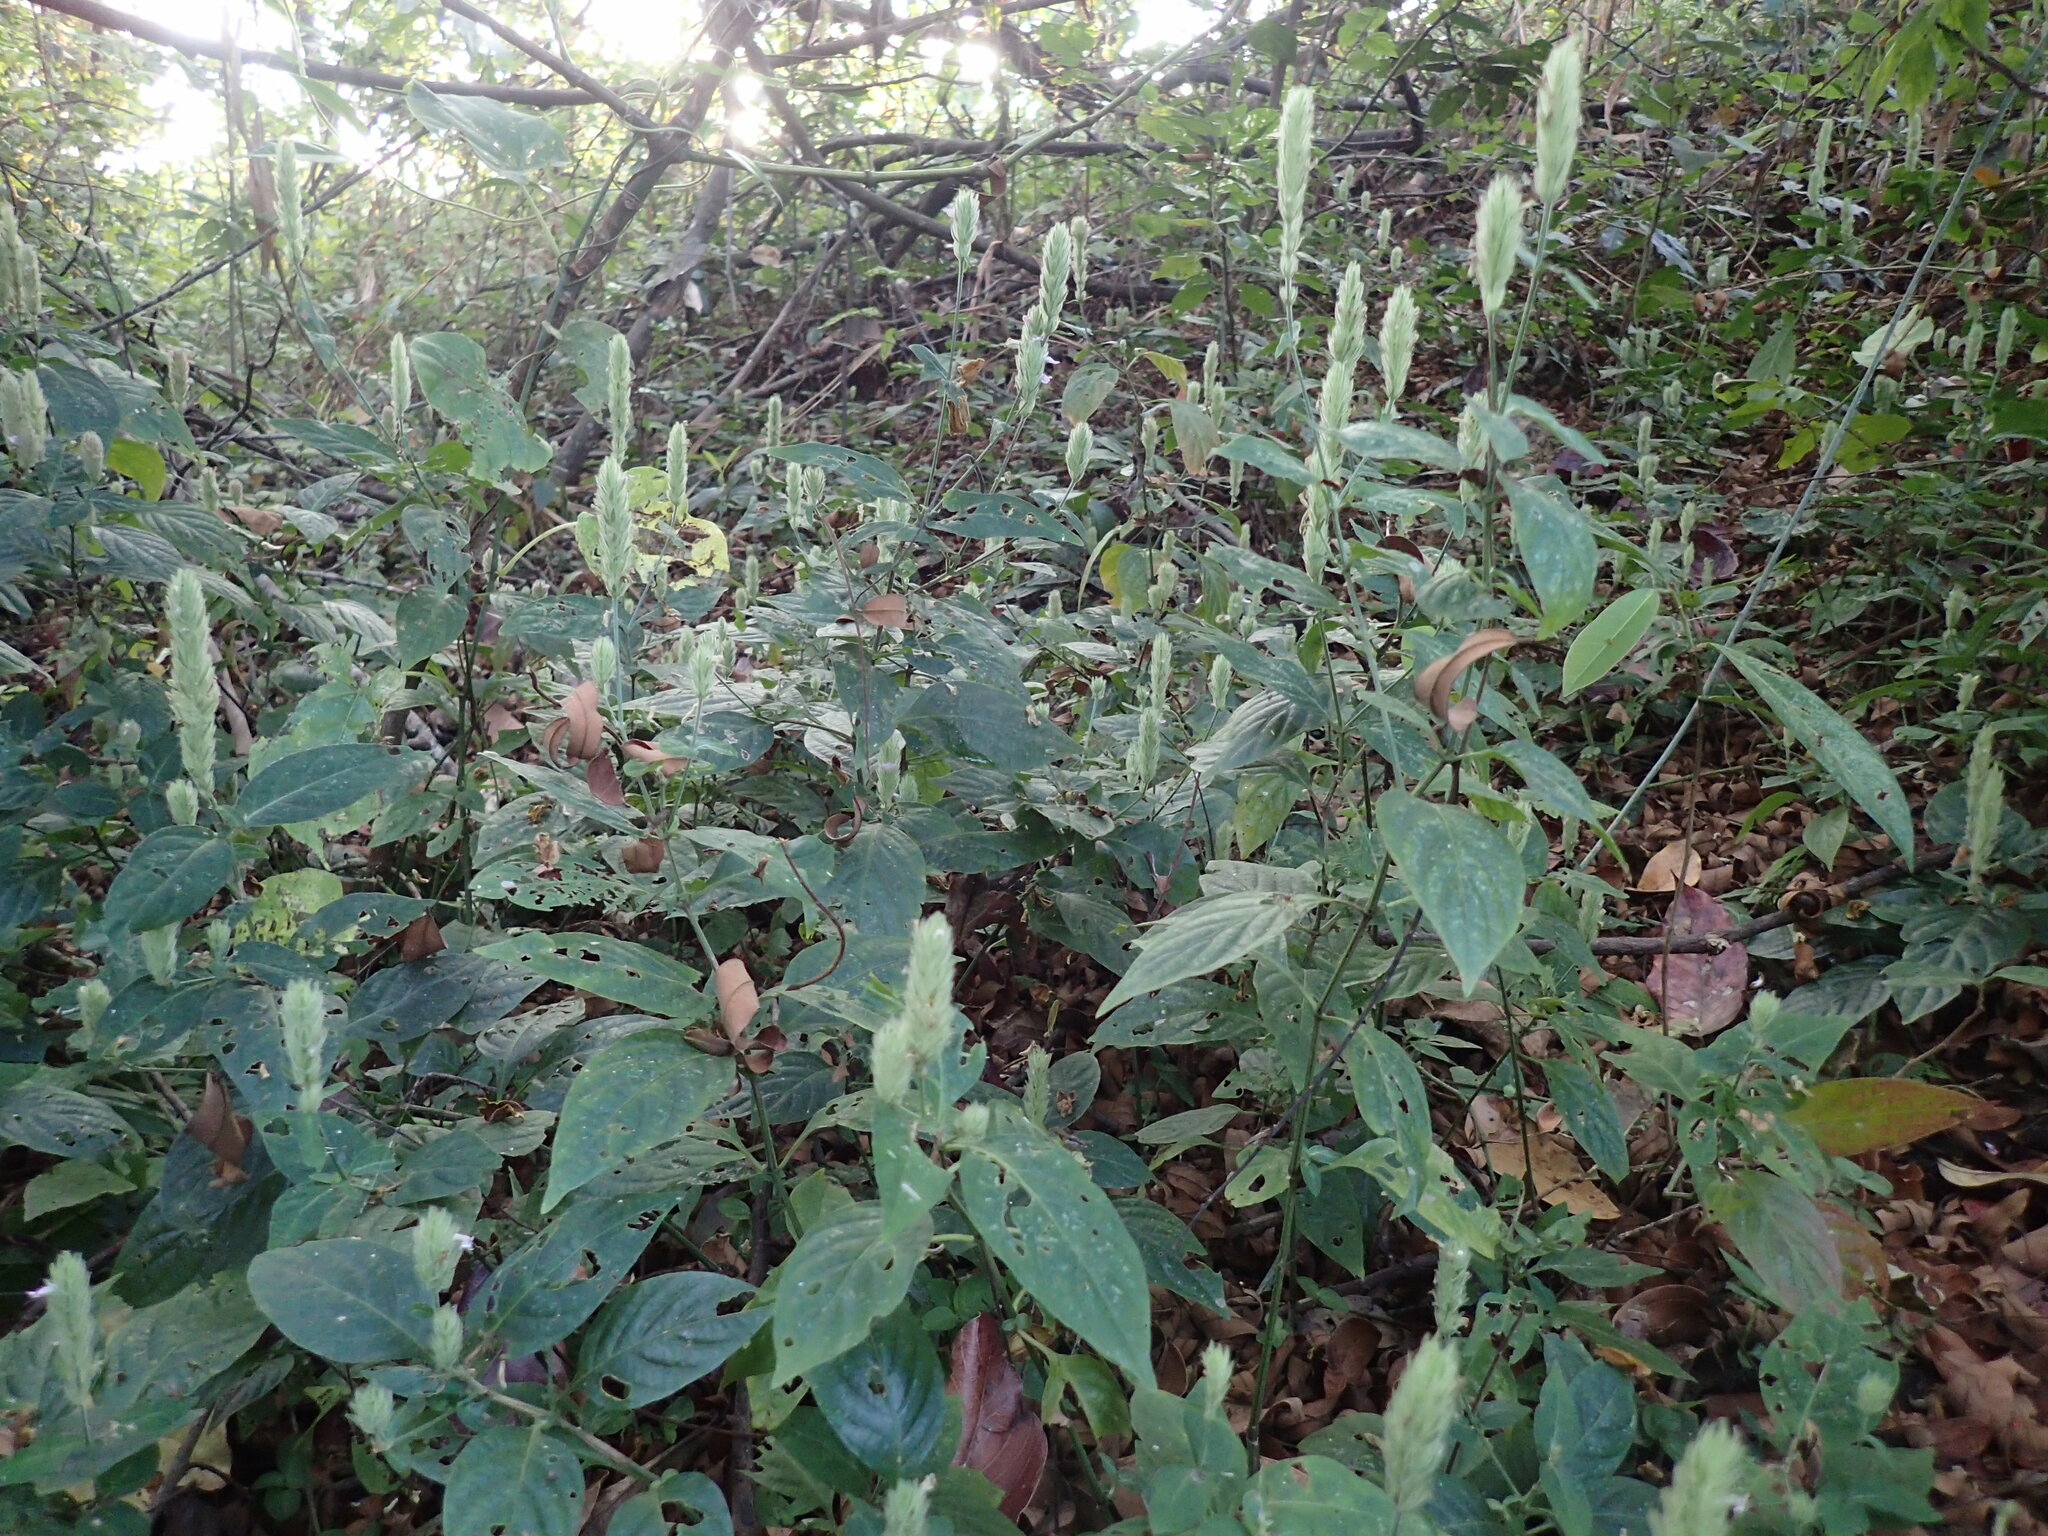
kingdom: Plantae
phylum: Tracheophyta
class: Magnoliopsida
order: Lamiales
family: Acanthaceae
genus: Justicia
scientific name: Justicia nyassana
